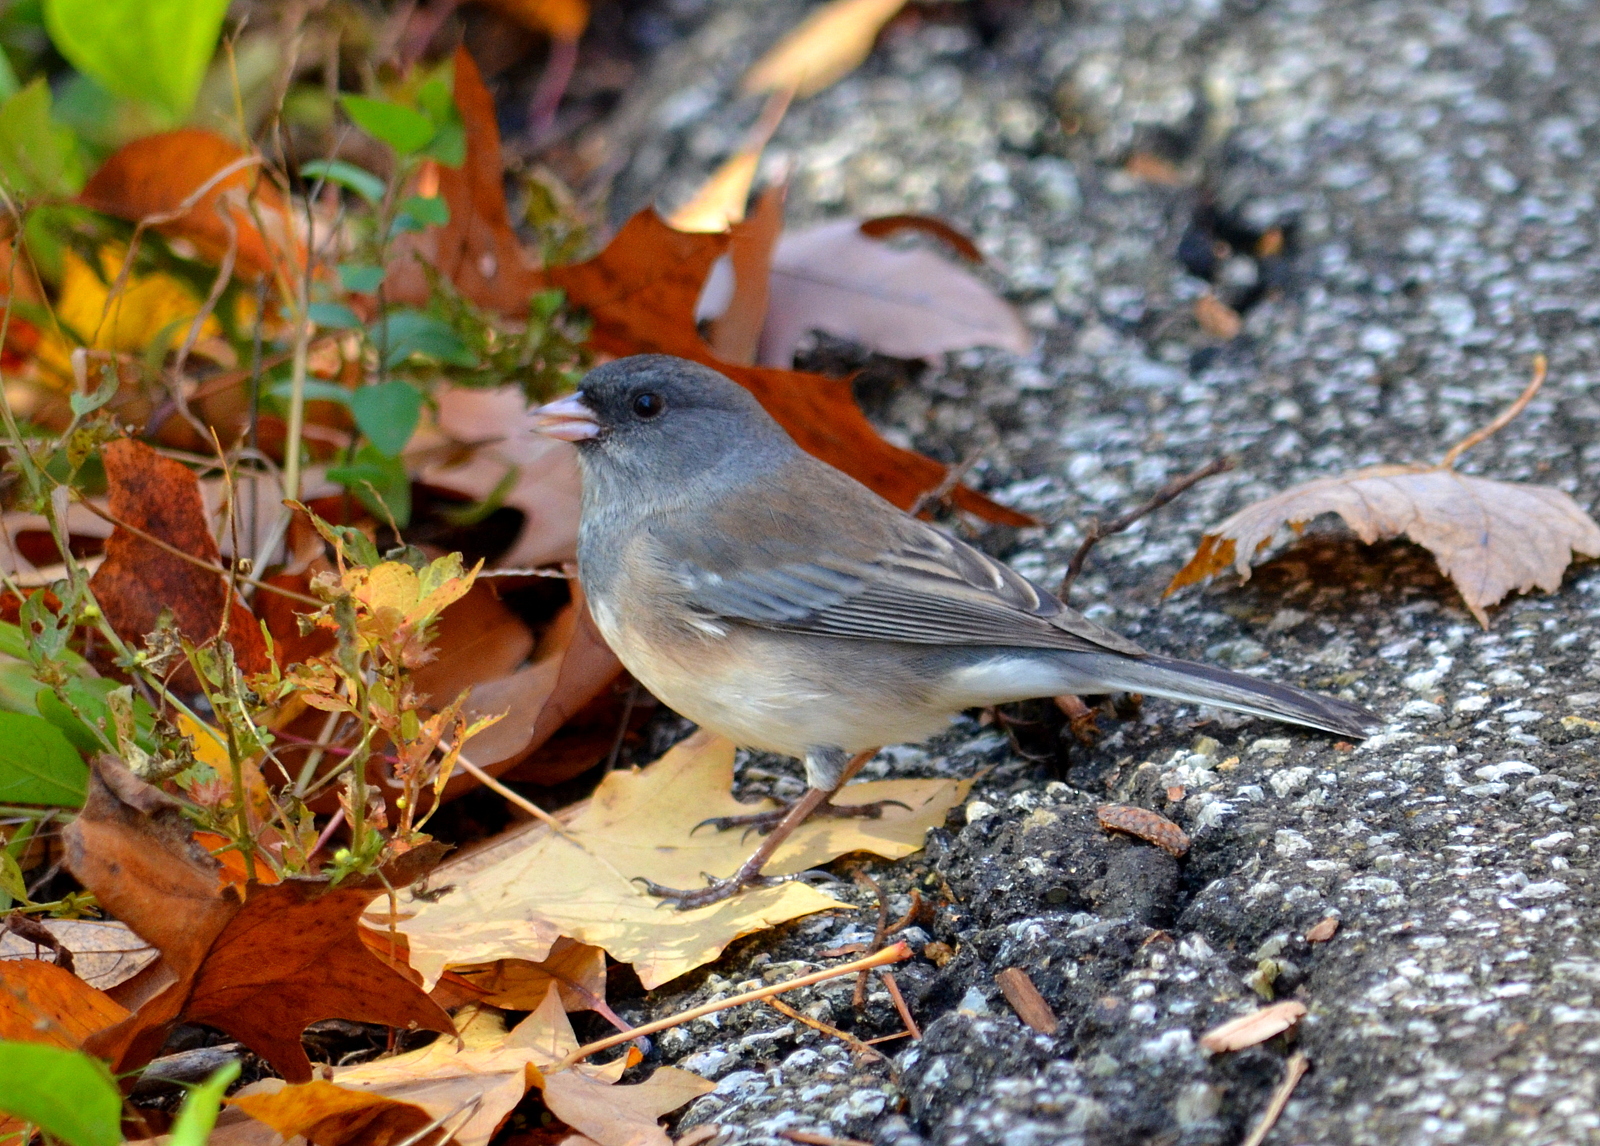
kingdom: Animalia
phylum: Chordata
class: Aves
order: Passeriformes
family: Passerellidae
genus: Junco
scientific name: Junco hyemalis
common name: Dark-eyed junco
